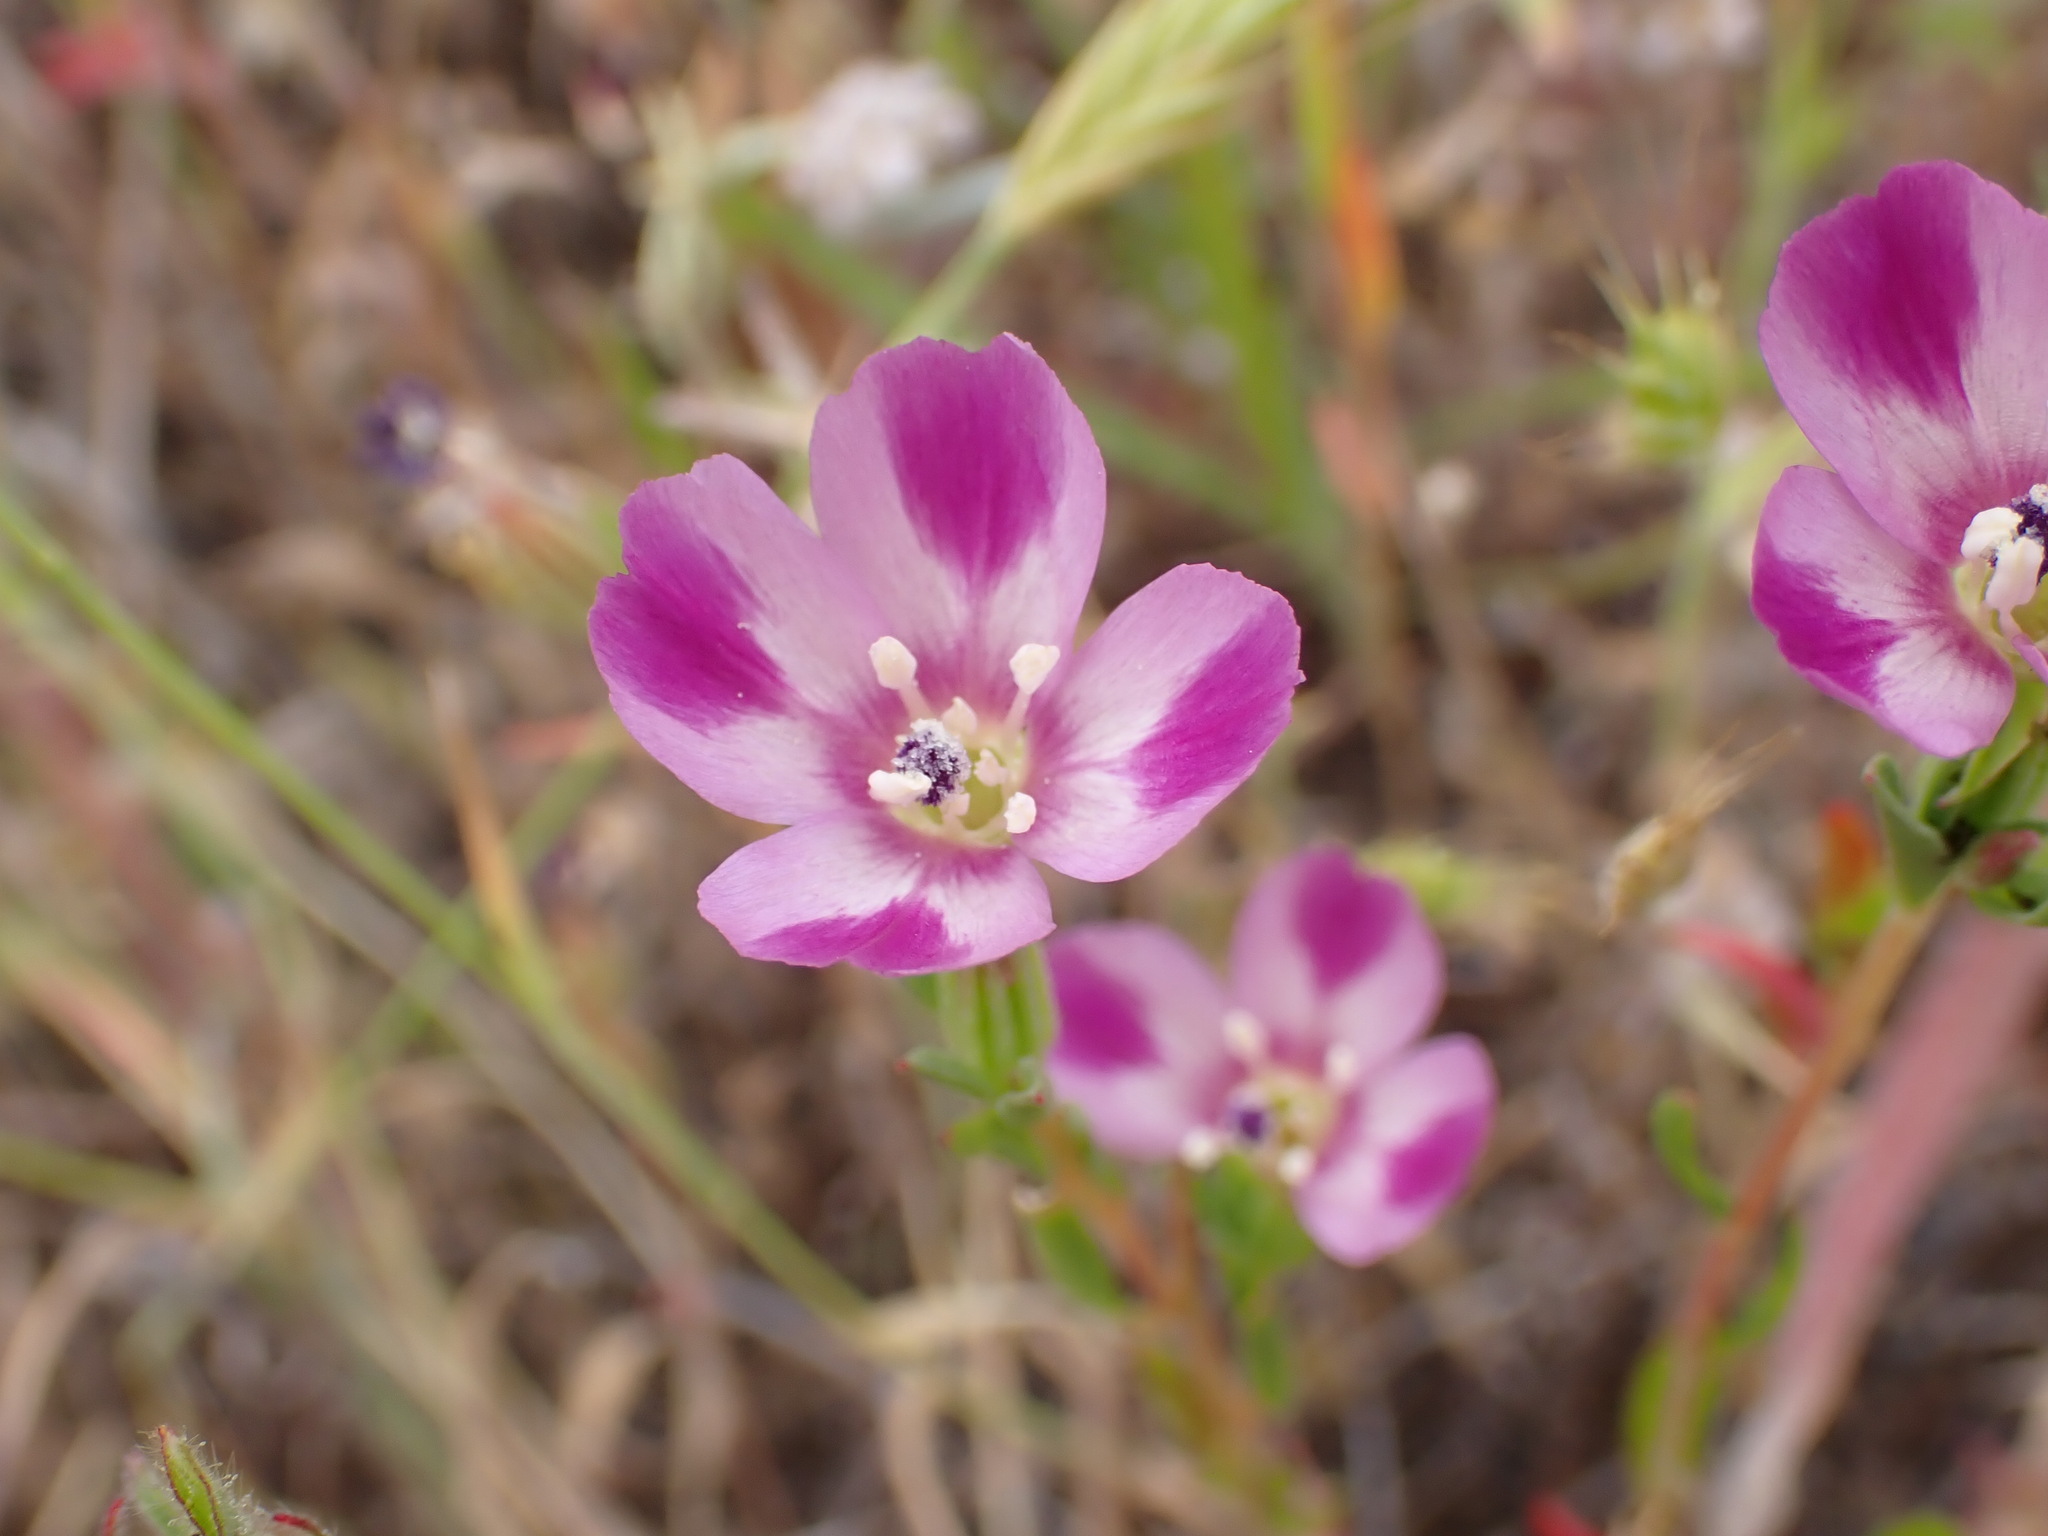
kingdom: Plantae
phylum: Tracheophyta
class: Magnoliopsida
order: Myrtales
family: Onagraceae
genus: Clarkia
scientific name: Clarkia purpurea
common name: Purple clarkia
